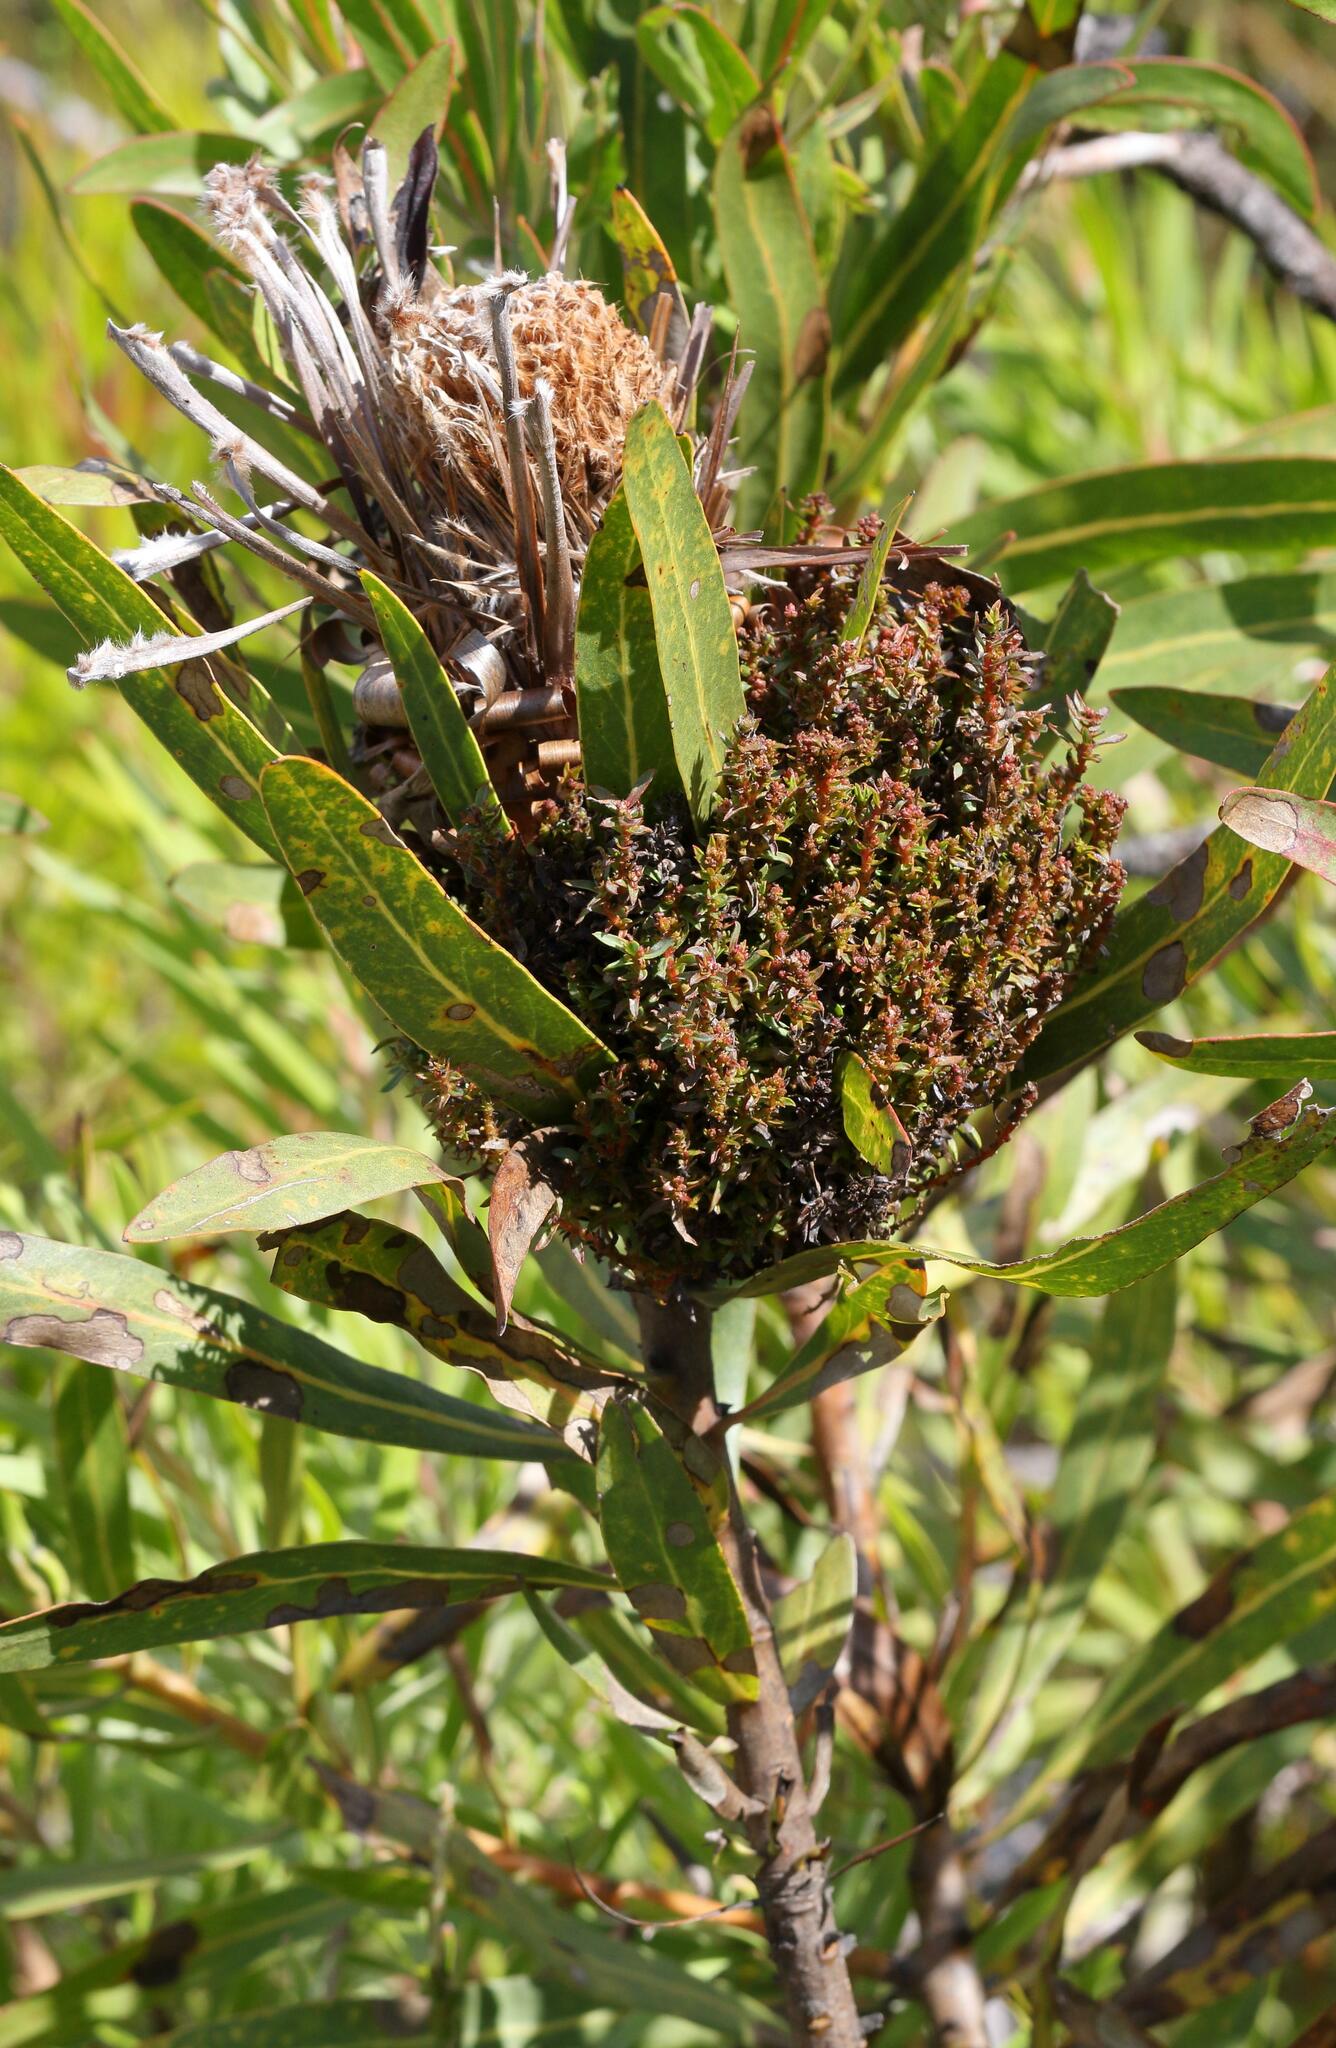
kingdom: Bacteria
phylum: Firmicutes
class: Bacilli
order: Acholeplasmatales
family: Acholeplasmataceae
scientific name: Acholeplasmataceae
